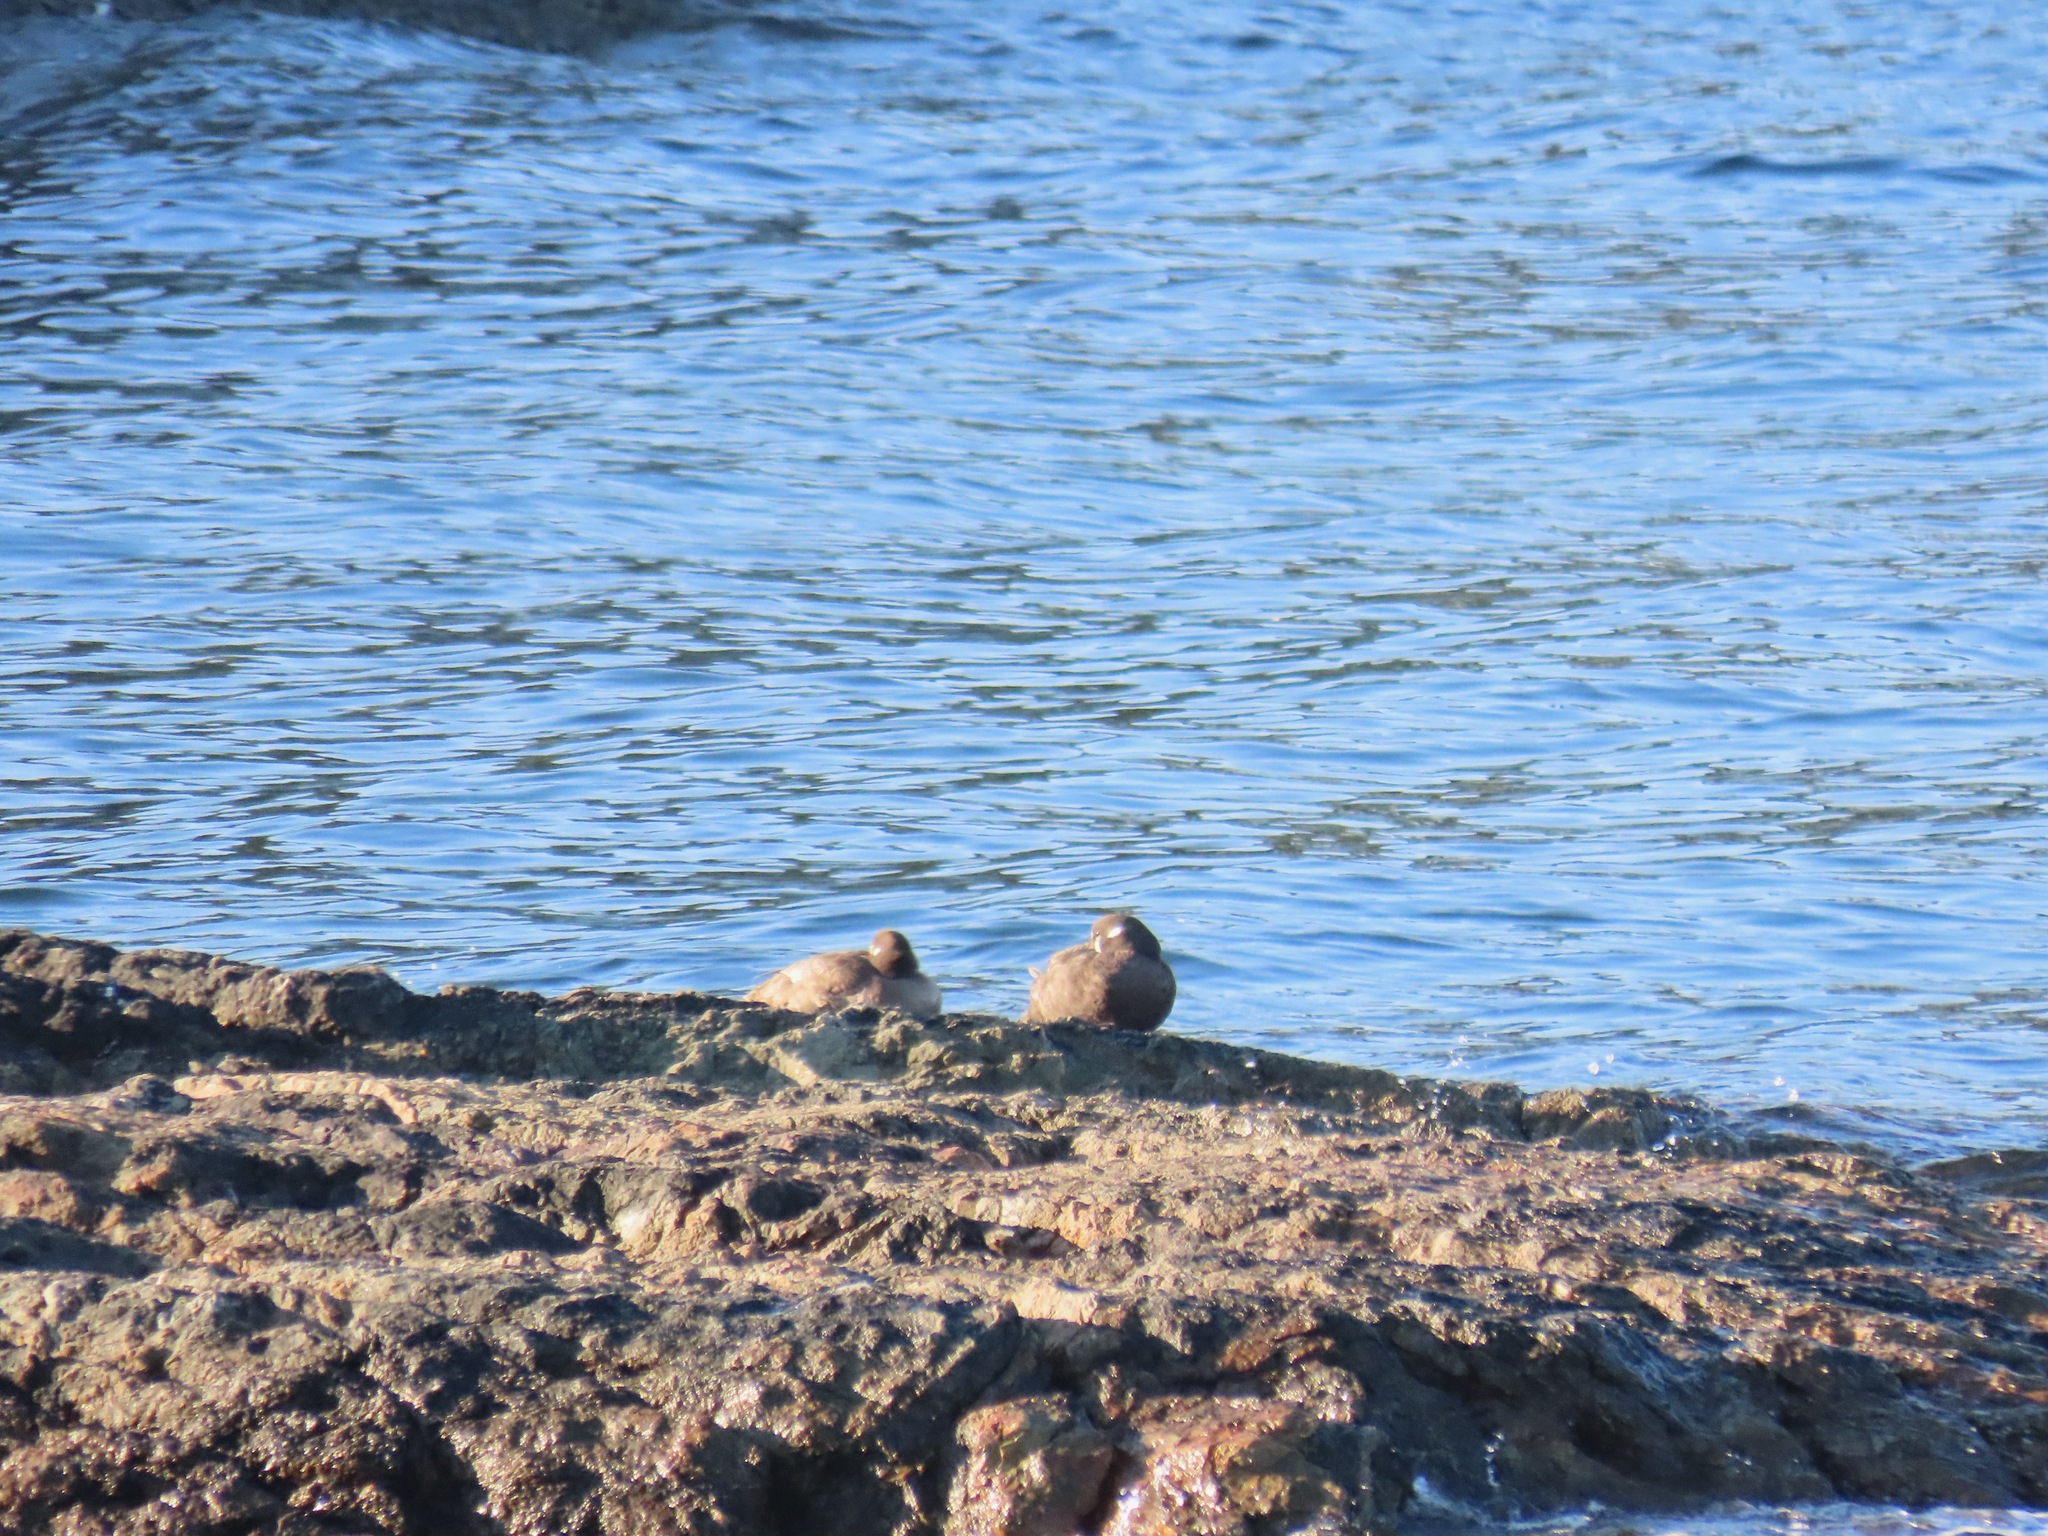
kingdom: Animalia
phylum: Chordata
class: Aves
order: Anseriformes
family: Anatidae
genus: Histrionicus
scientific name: Histrionicus histrionicus
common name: Harlequin duck
